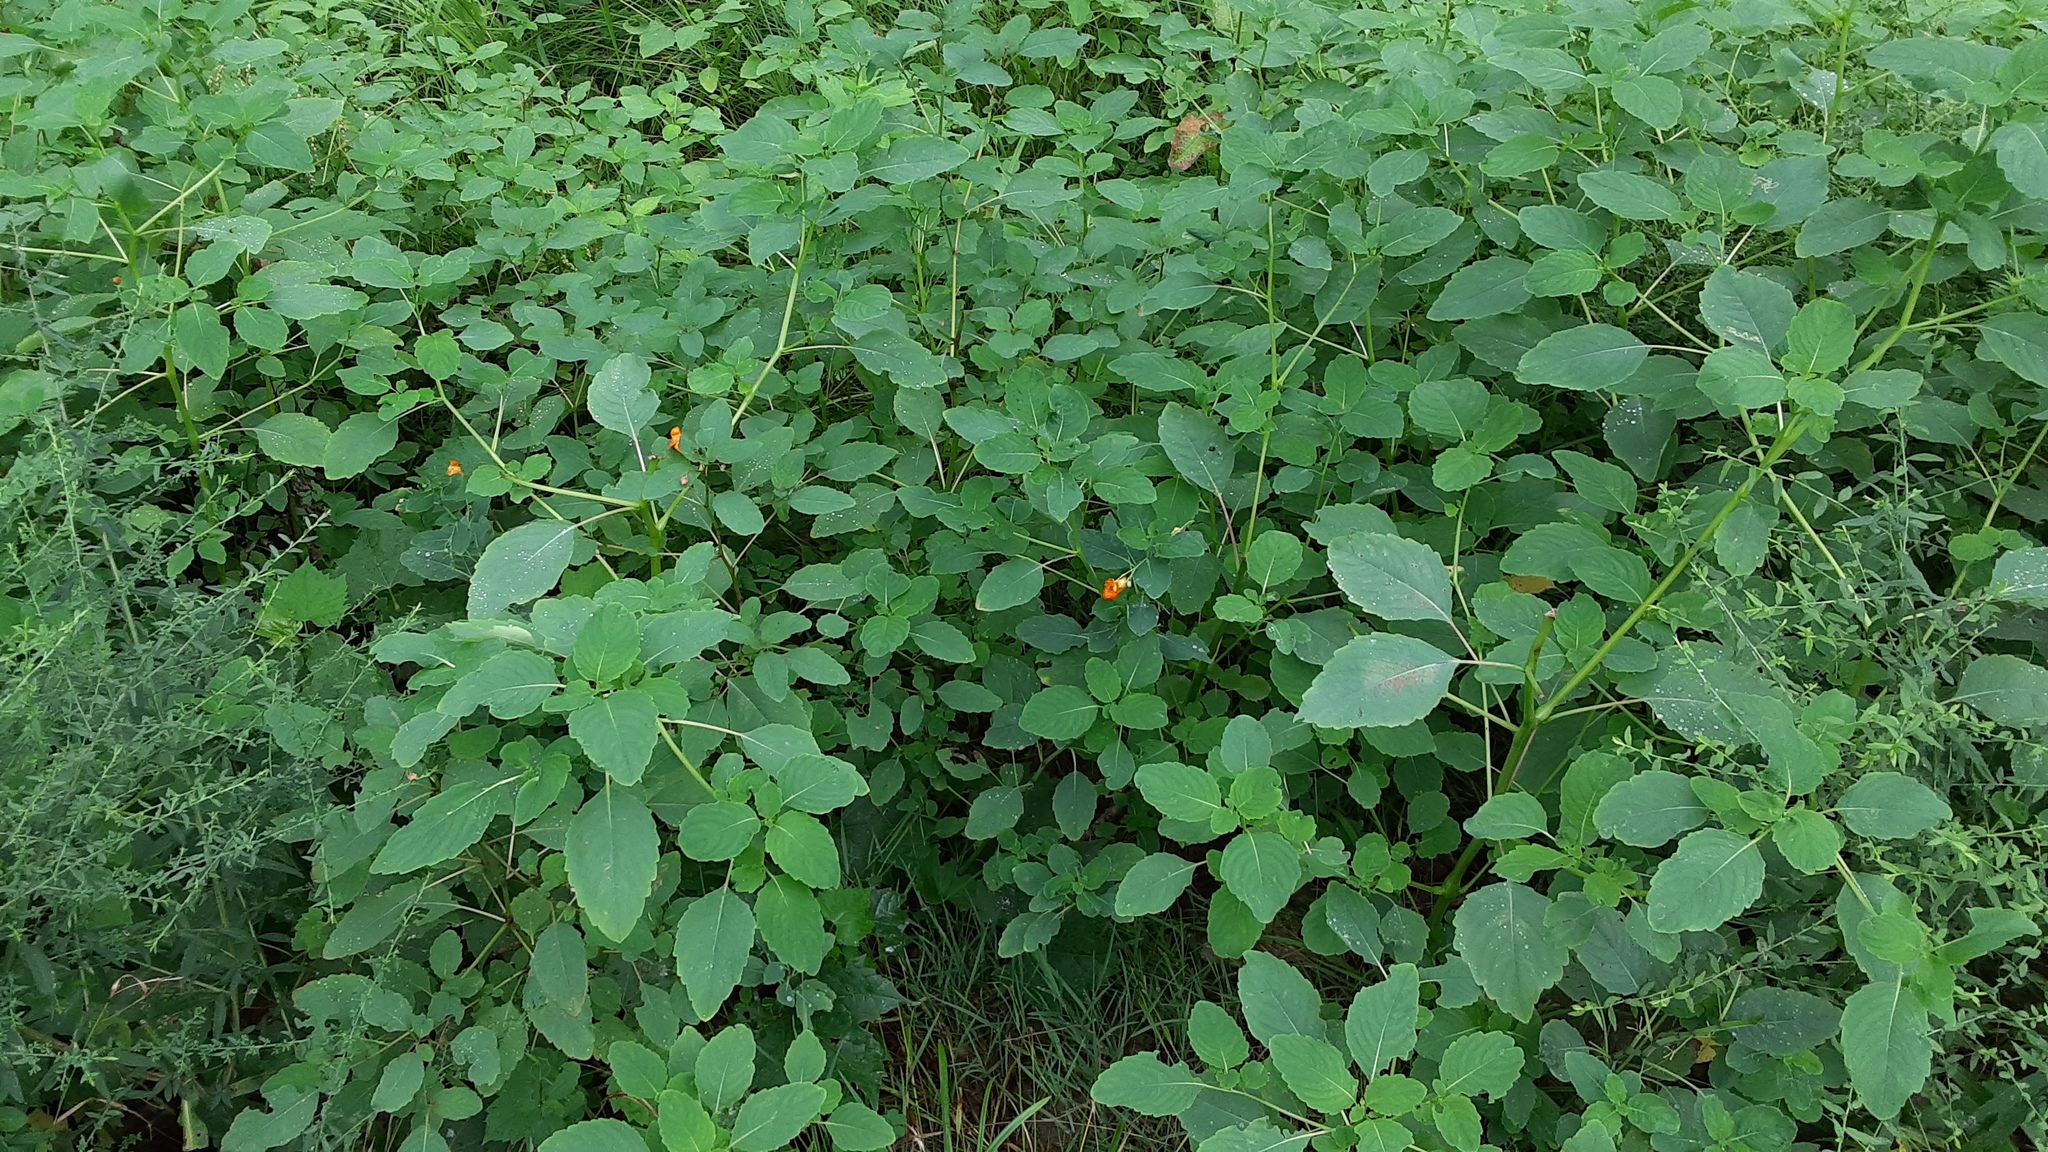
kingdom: Plantae
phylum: Tracheophyta
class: Magnoliopsida
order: Ericales
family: Balsaminaceae
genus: Impatiens
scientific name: Impatiens capensis
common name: Orange balsam
